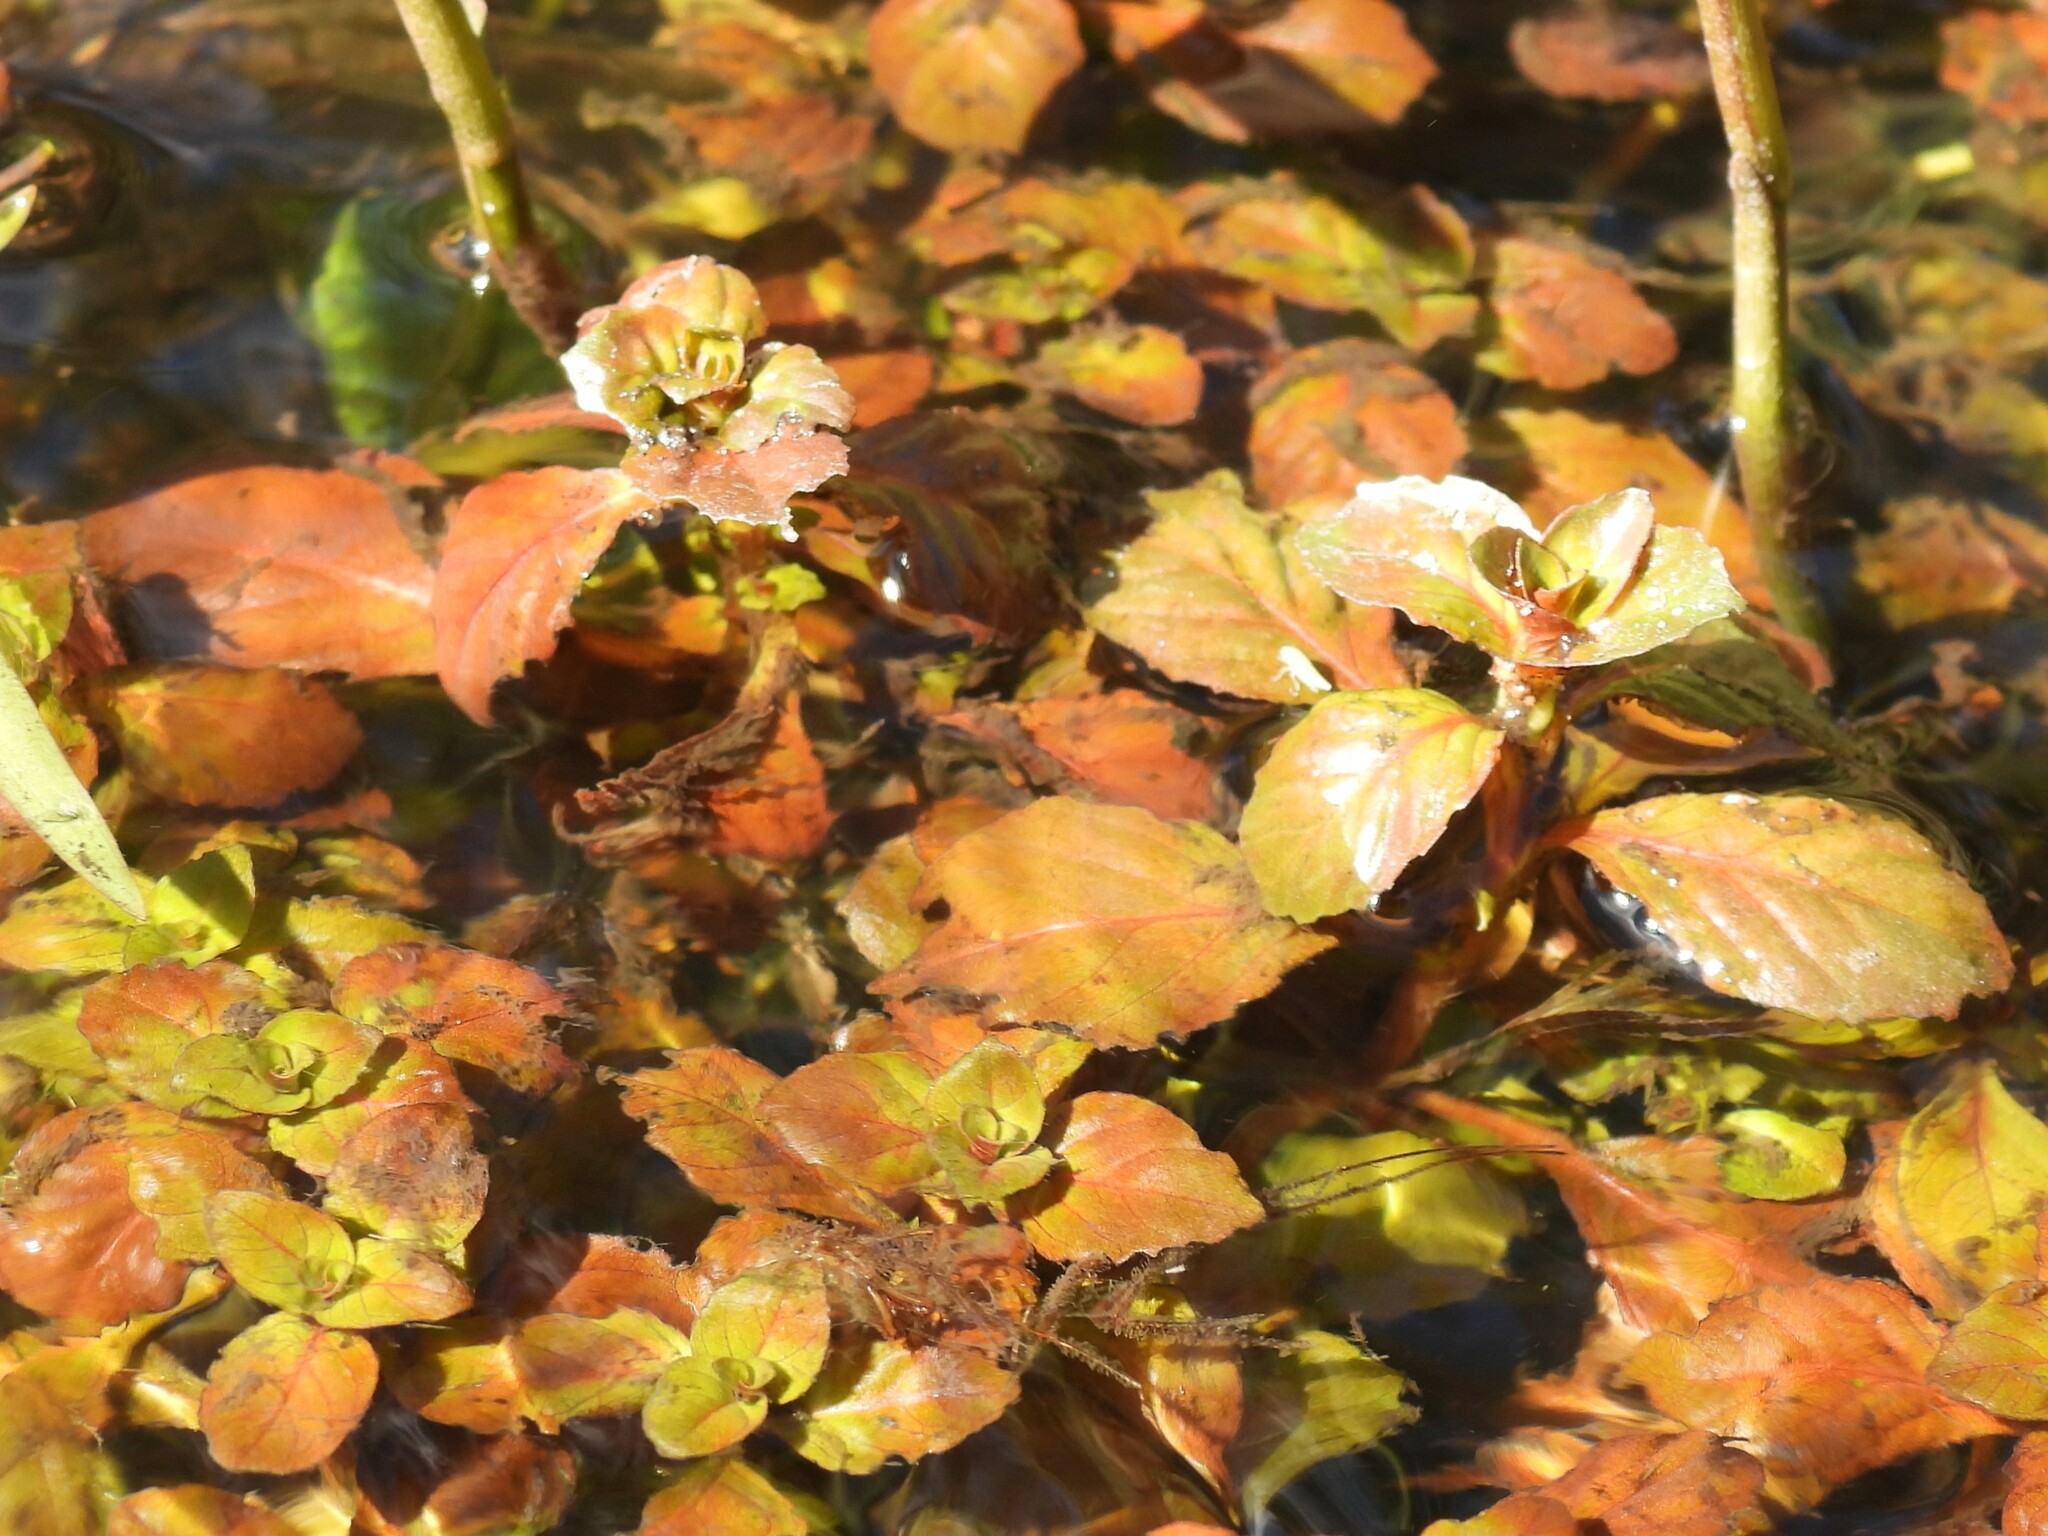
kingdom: Plantae
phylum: Tracheophyta
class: Magnoliopsida
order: Myrtales
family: Onagraceae
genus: Ludwigia
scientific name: Ludwigia repens
